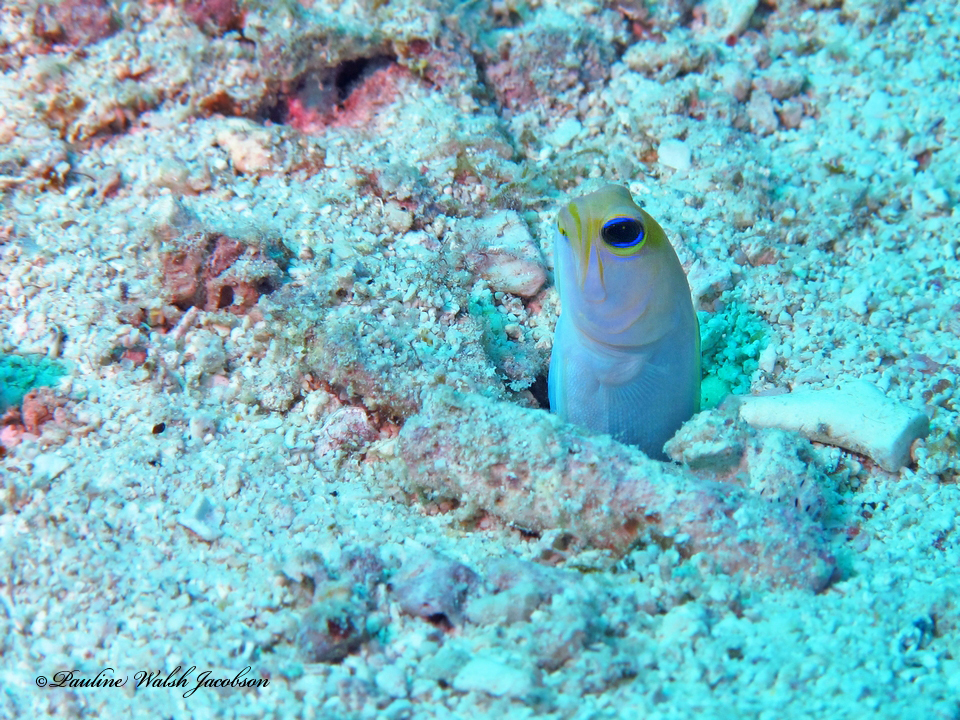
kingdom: Animalia
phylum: Chordata
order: Perciformes
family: Opistognathidae
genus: Opistognathus
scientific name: Opistognathus aurifrons
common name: Yellowhead jawfish
